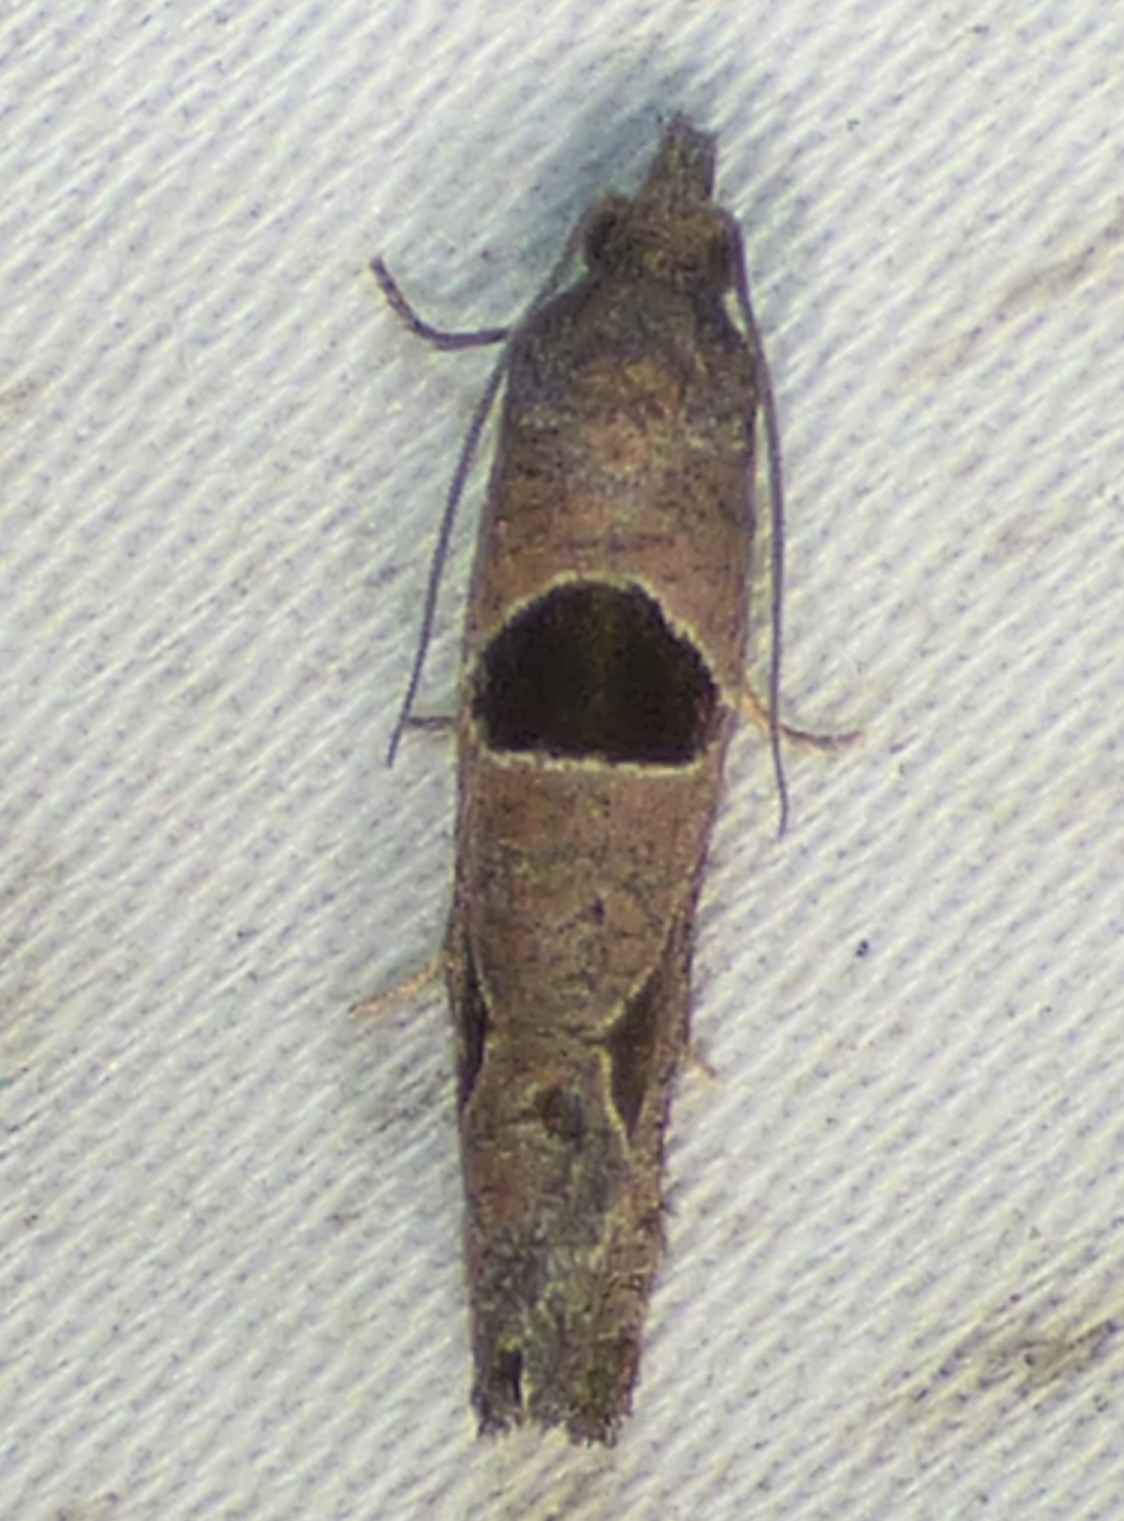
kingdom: Animalia
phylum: Arthropoda
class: Insecta
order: Lepidoptera
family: Tortricidae
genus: Pelochrista
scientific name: Pelochrista dorsisignatana
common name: Triangle-backed pelochrista moth
